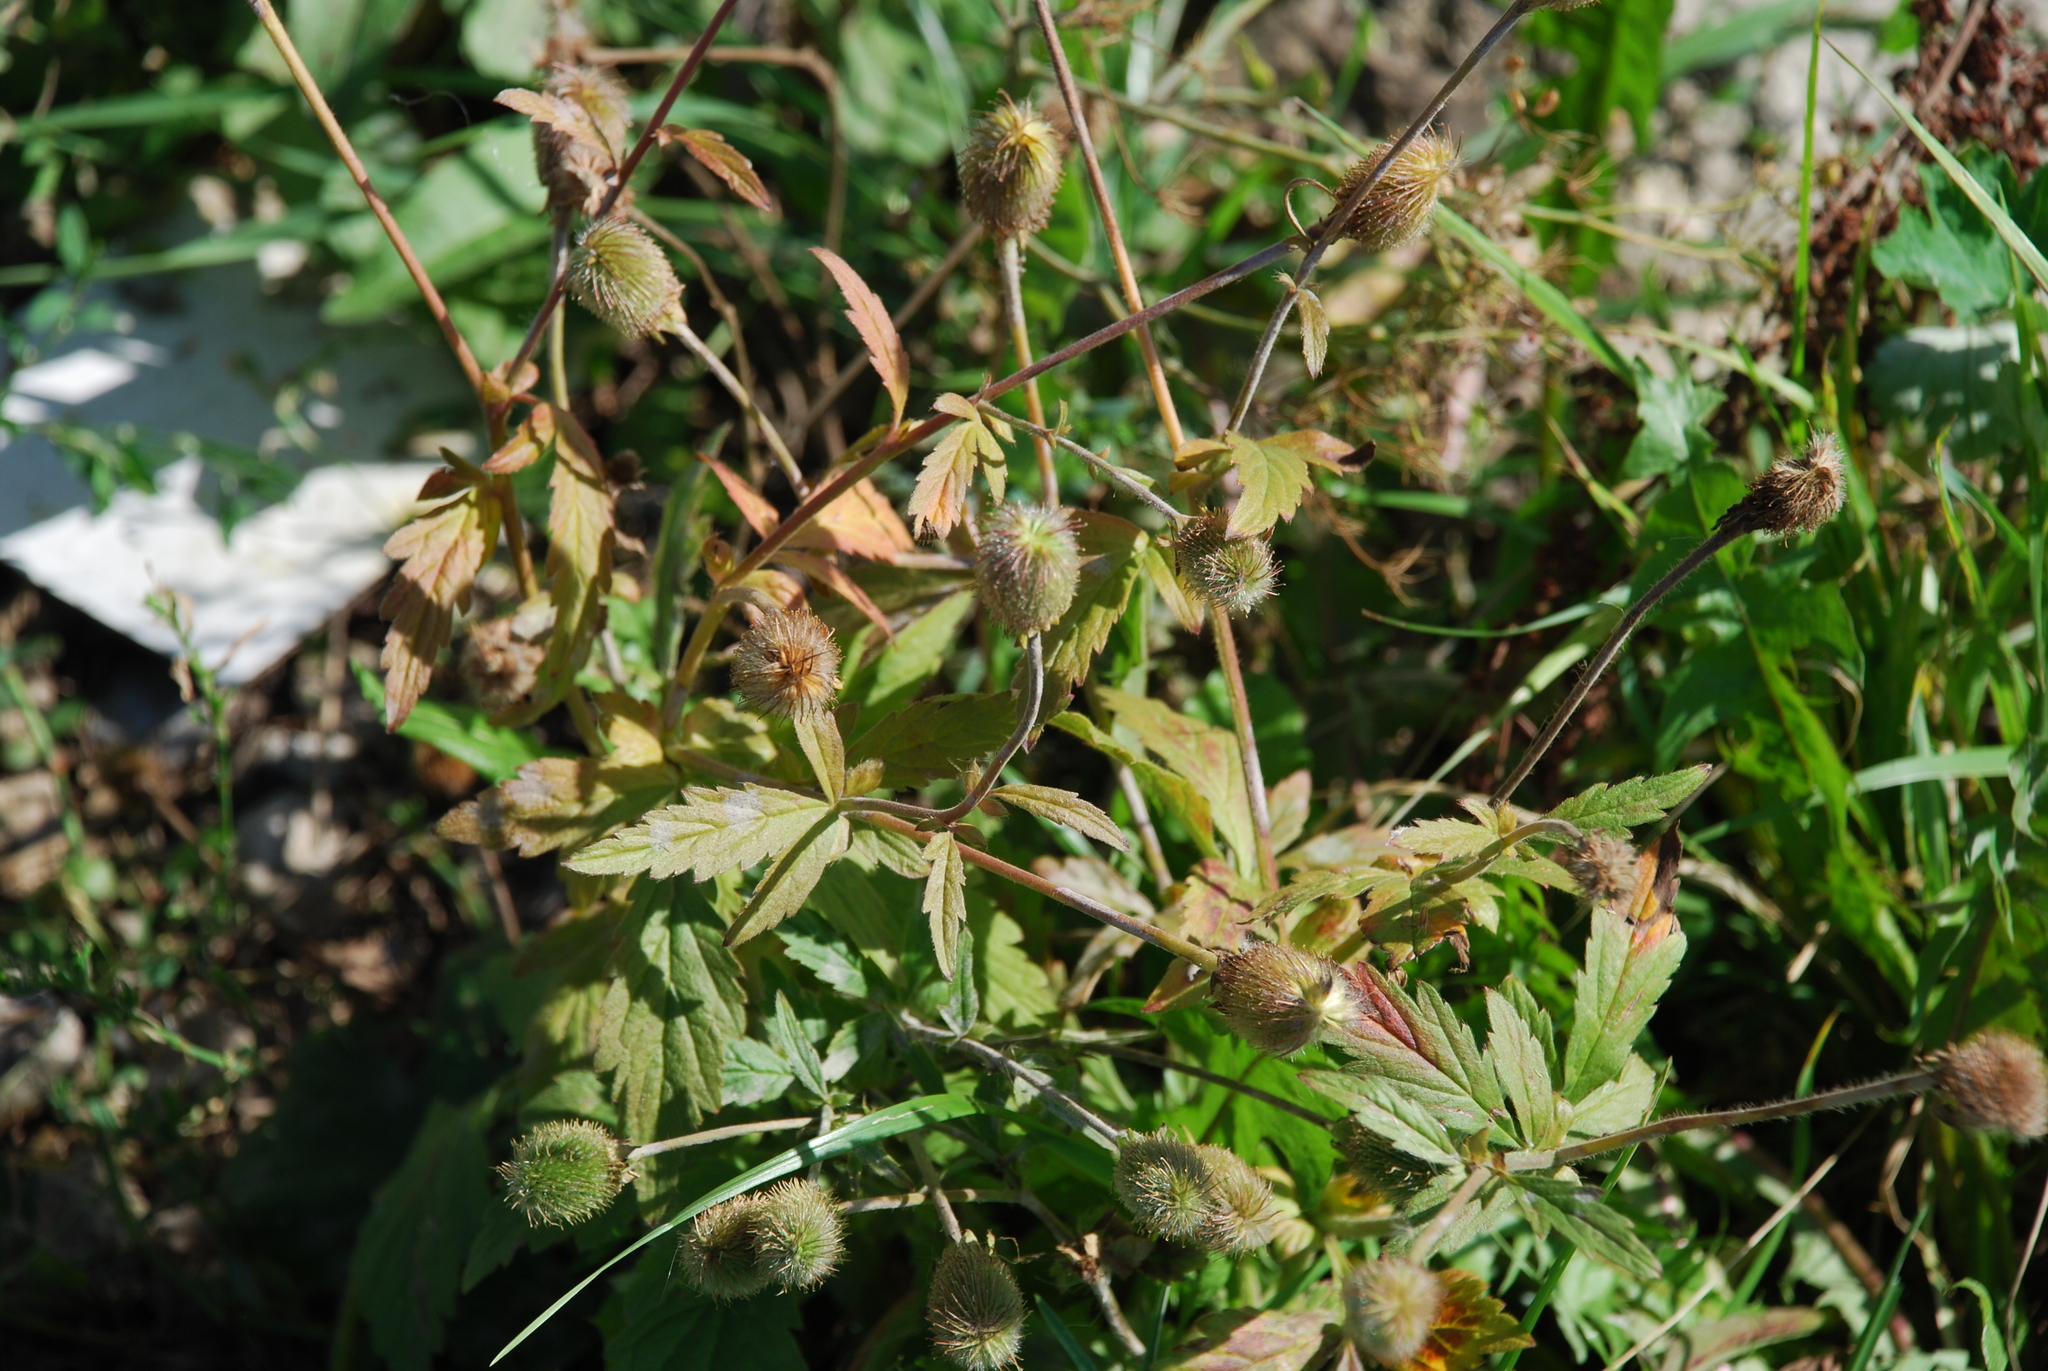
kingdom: Plantae
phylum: Tracheophyta
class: Magnoliopsida
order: Rosales
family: Rosaceae
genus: Geum
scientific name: Geum aleppicum
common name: Yellow avens
